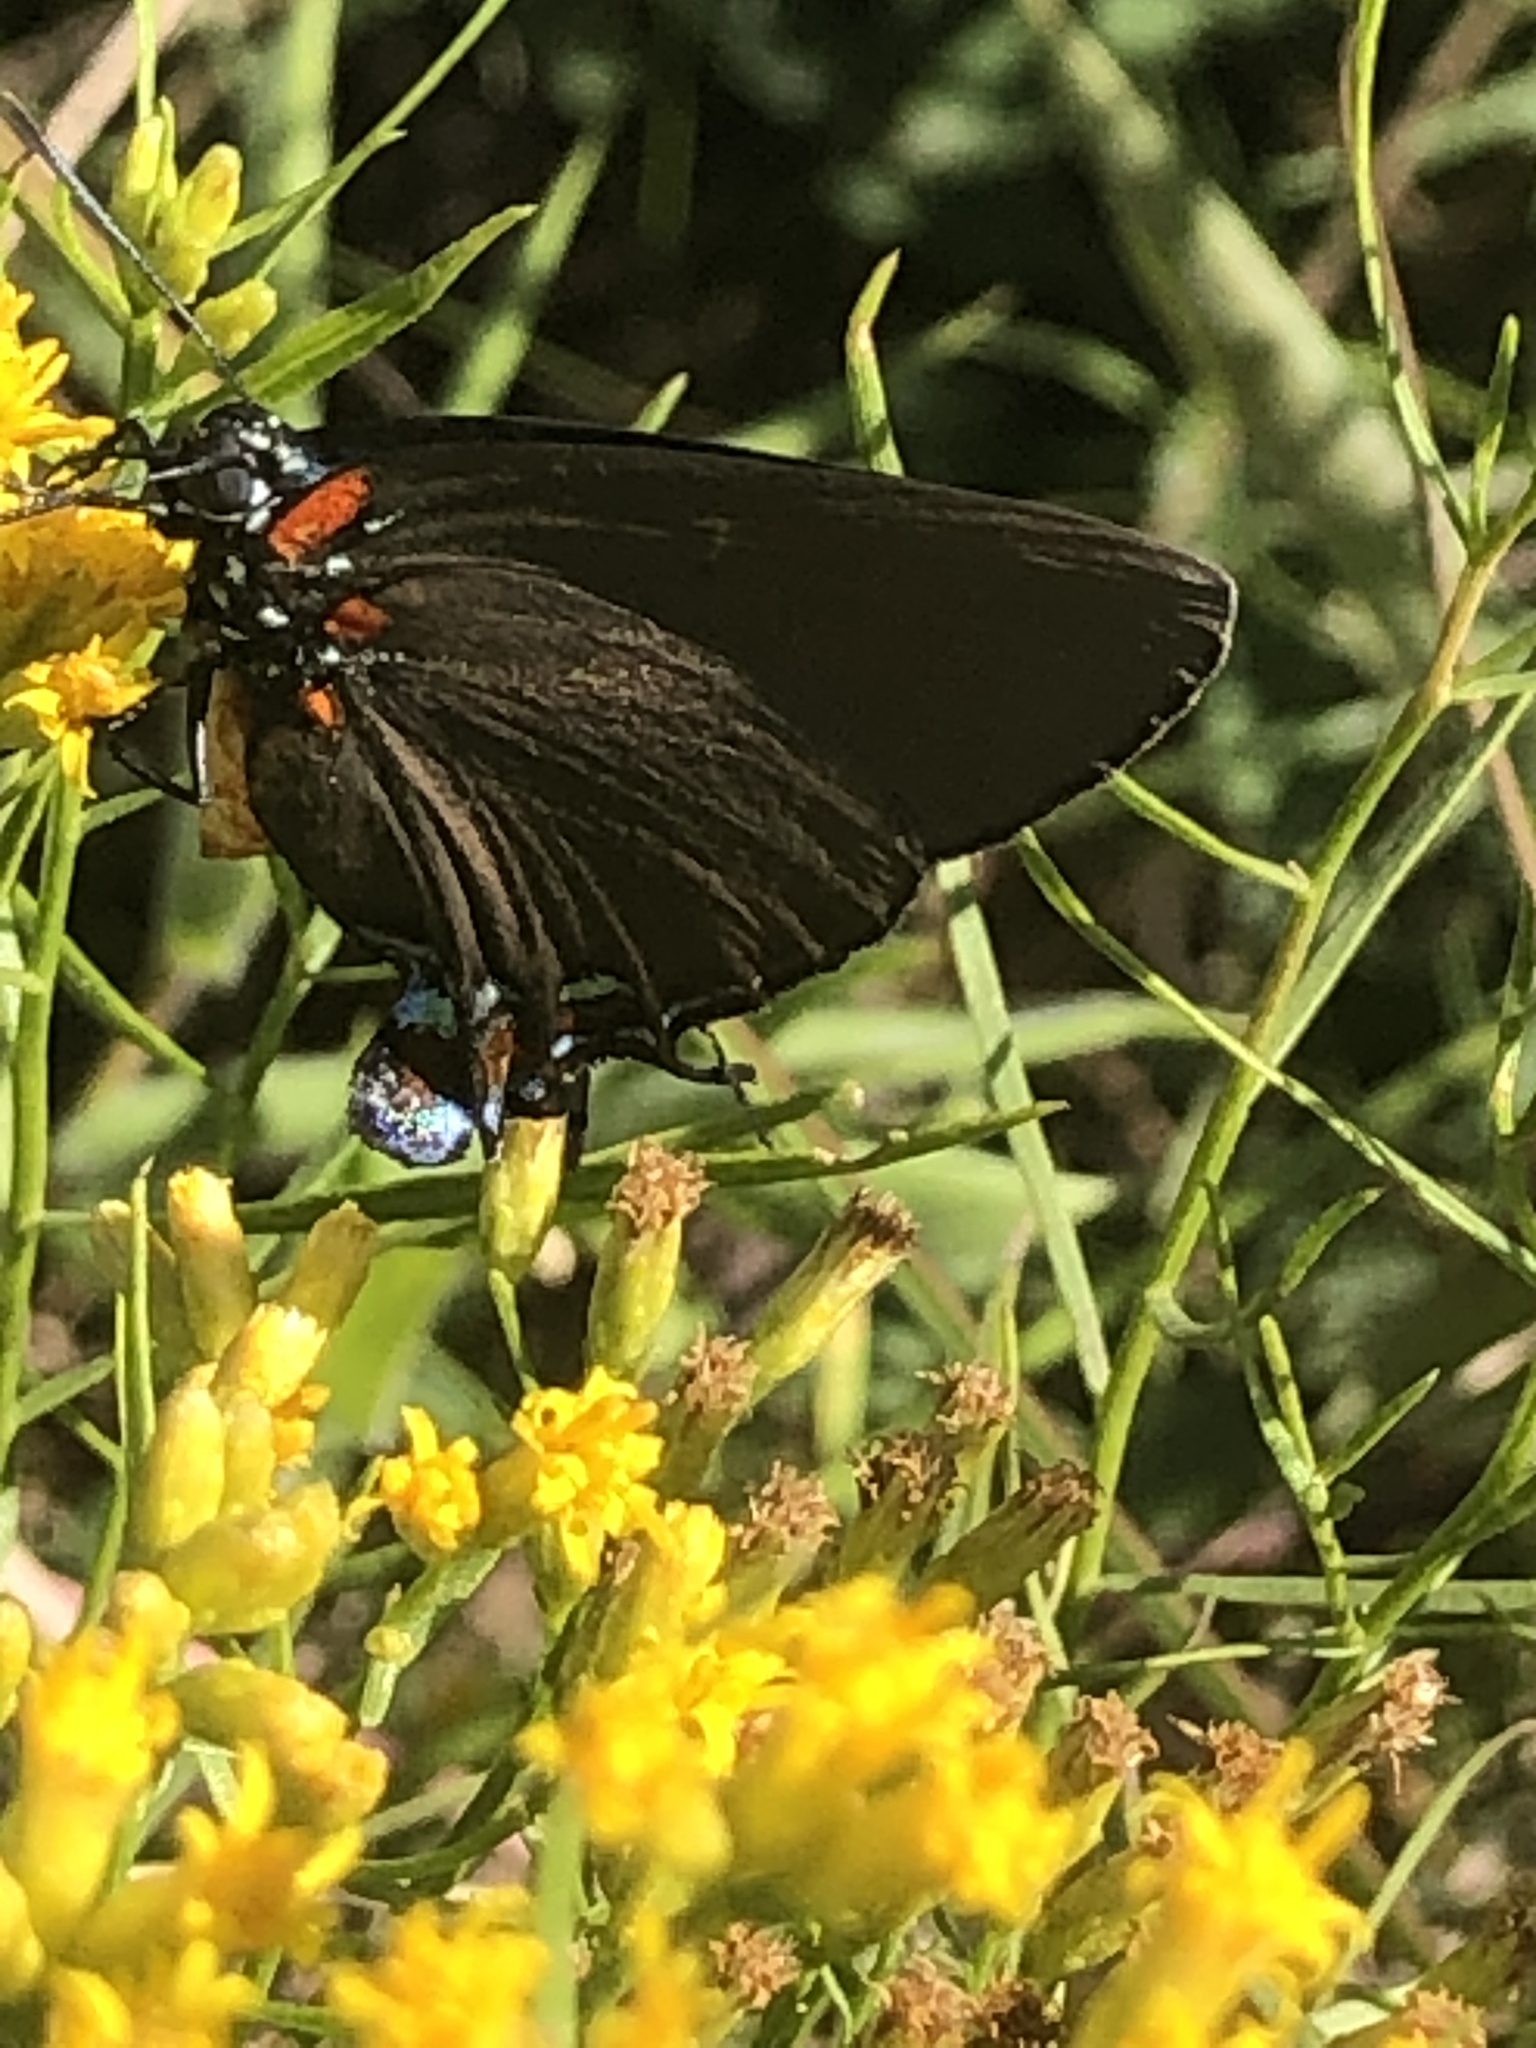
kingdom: Animalia
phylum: Arthropoda
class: Insecta
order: Lepidoptera
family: Lycaenidae
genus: Atlides
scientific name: Atlides halesus
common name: Great purple hairstreak
